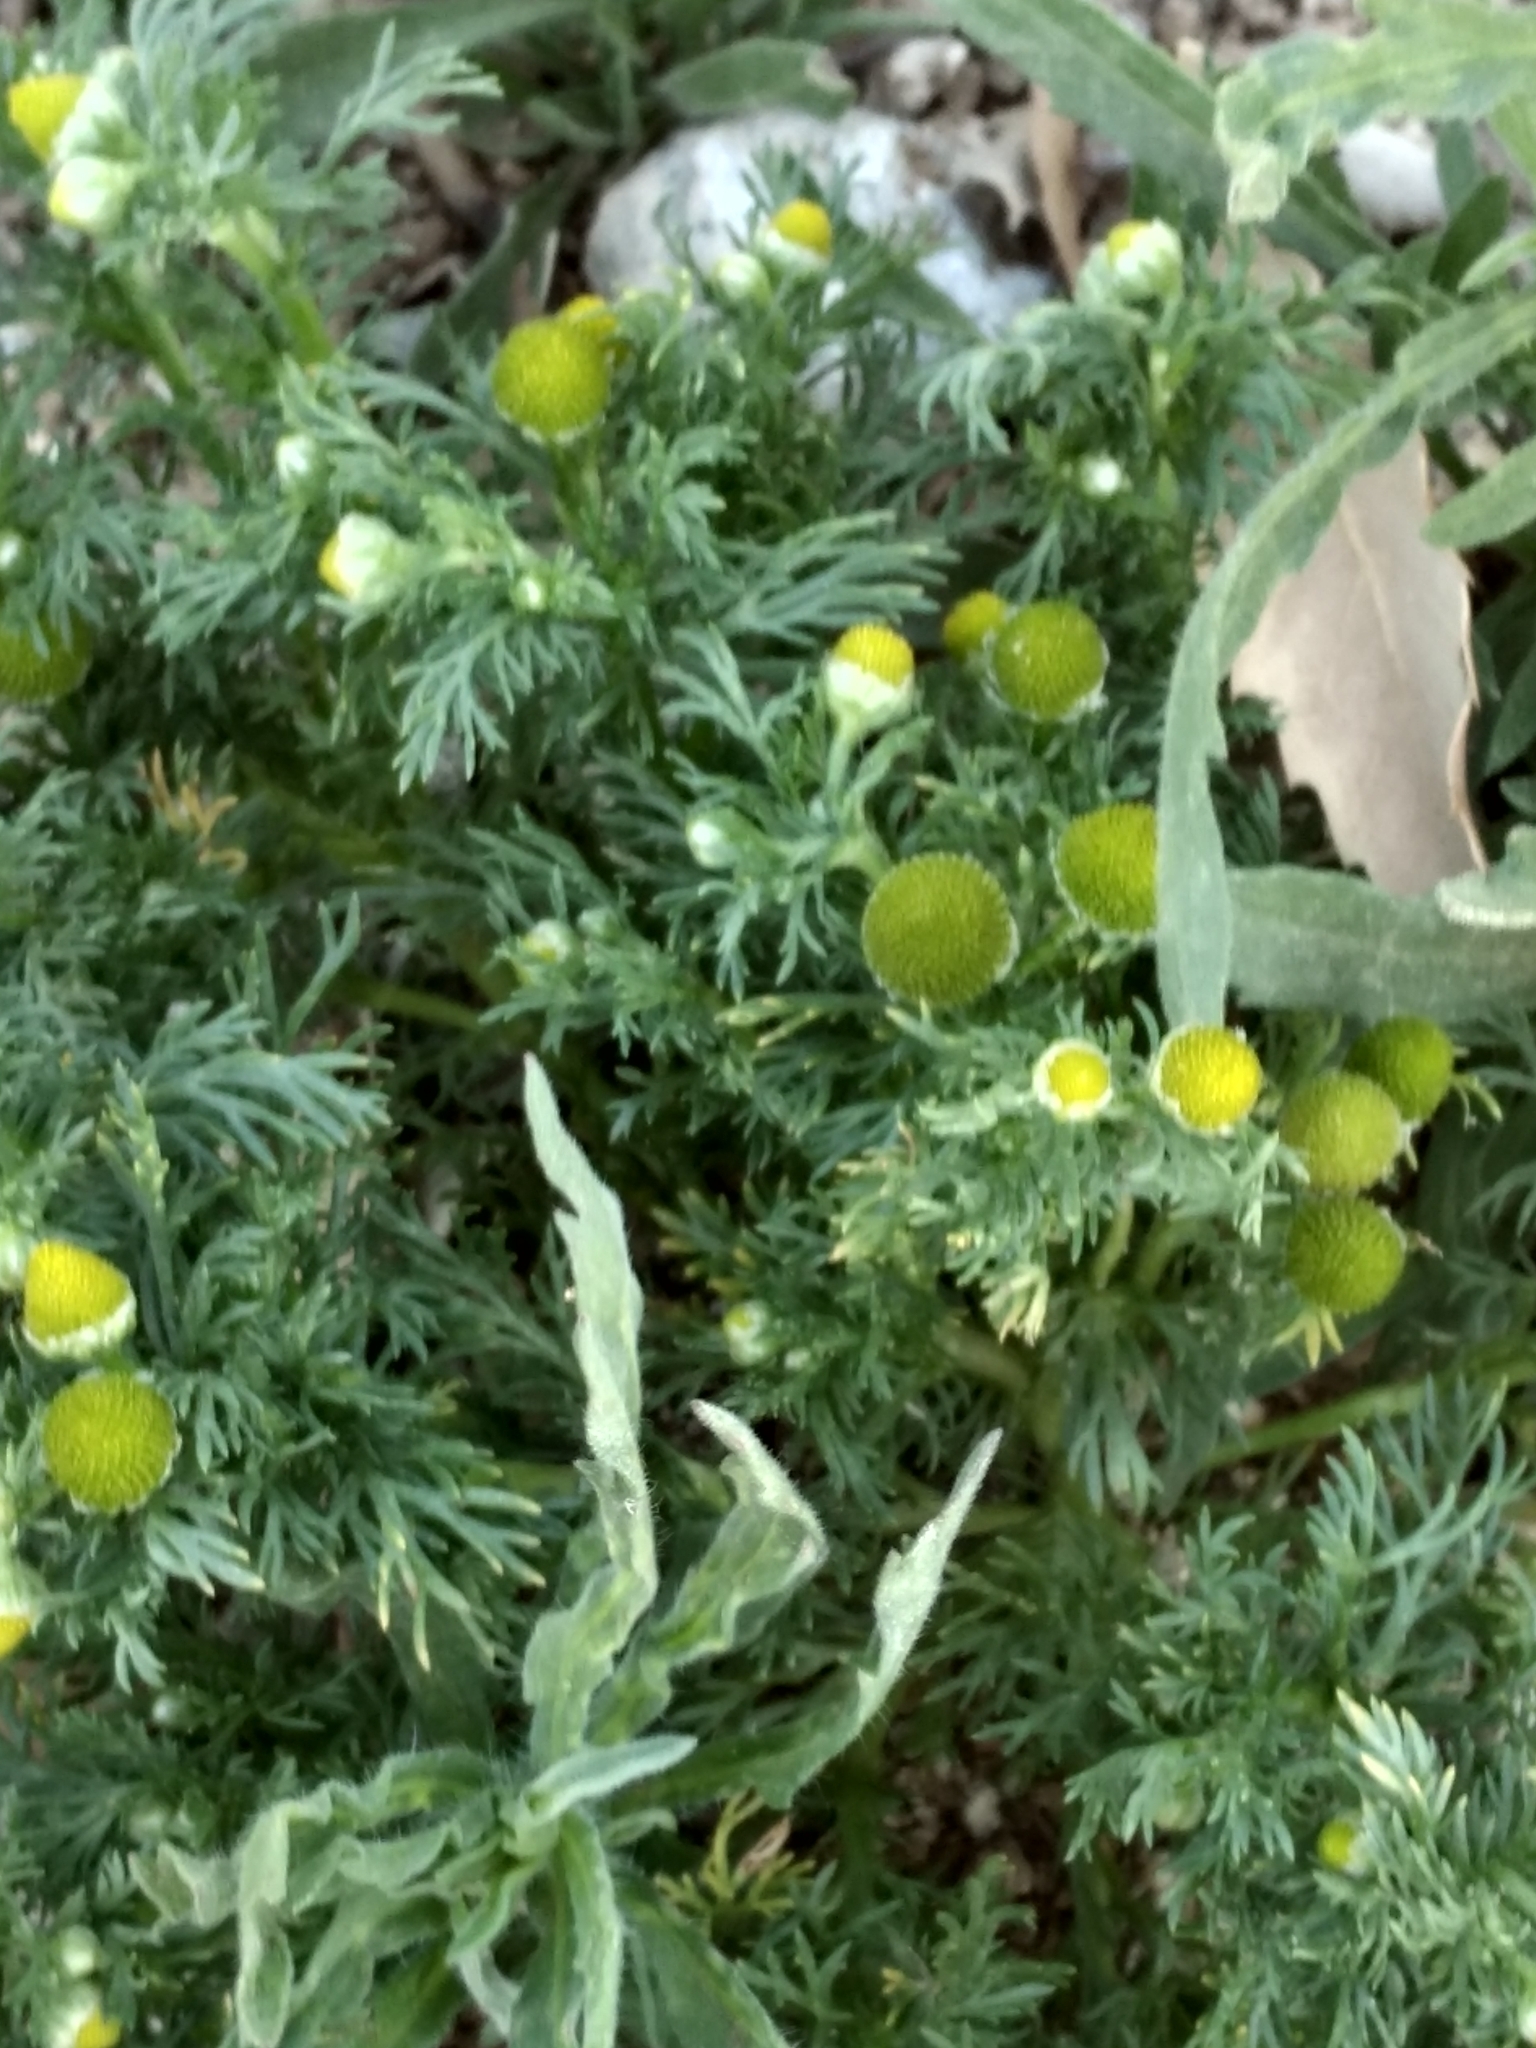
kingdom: Plantae
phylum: Tracheophyta
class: Magnoliopsida
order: Asterales
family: Asteraceae
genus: Matricaria
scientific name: Matricaria discoidea
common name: Disc mayweed
